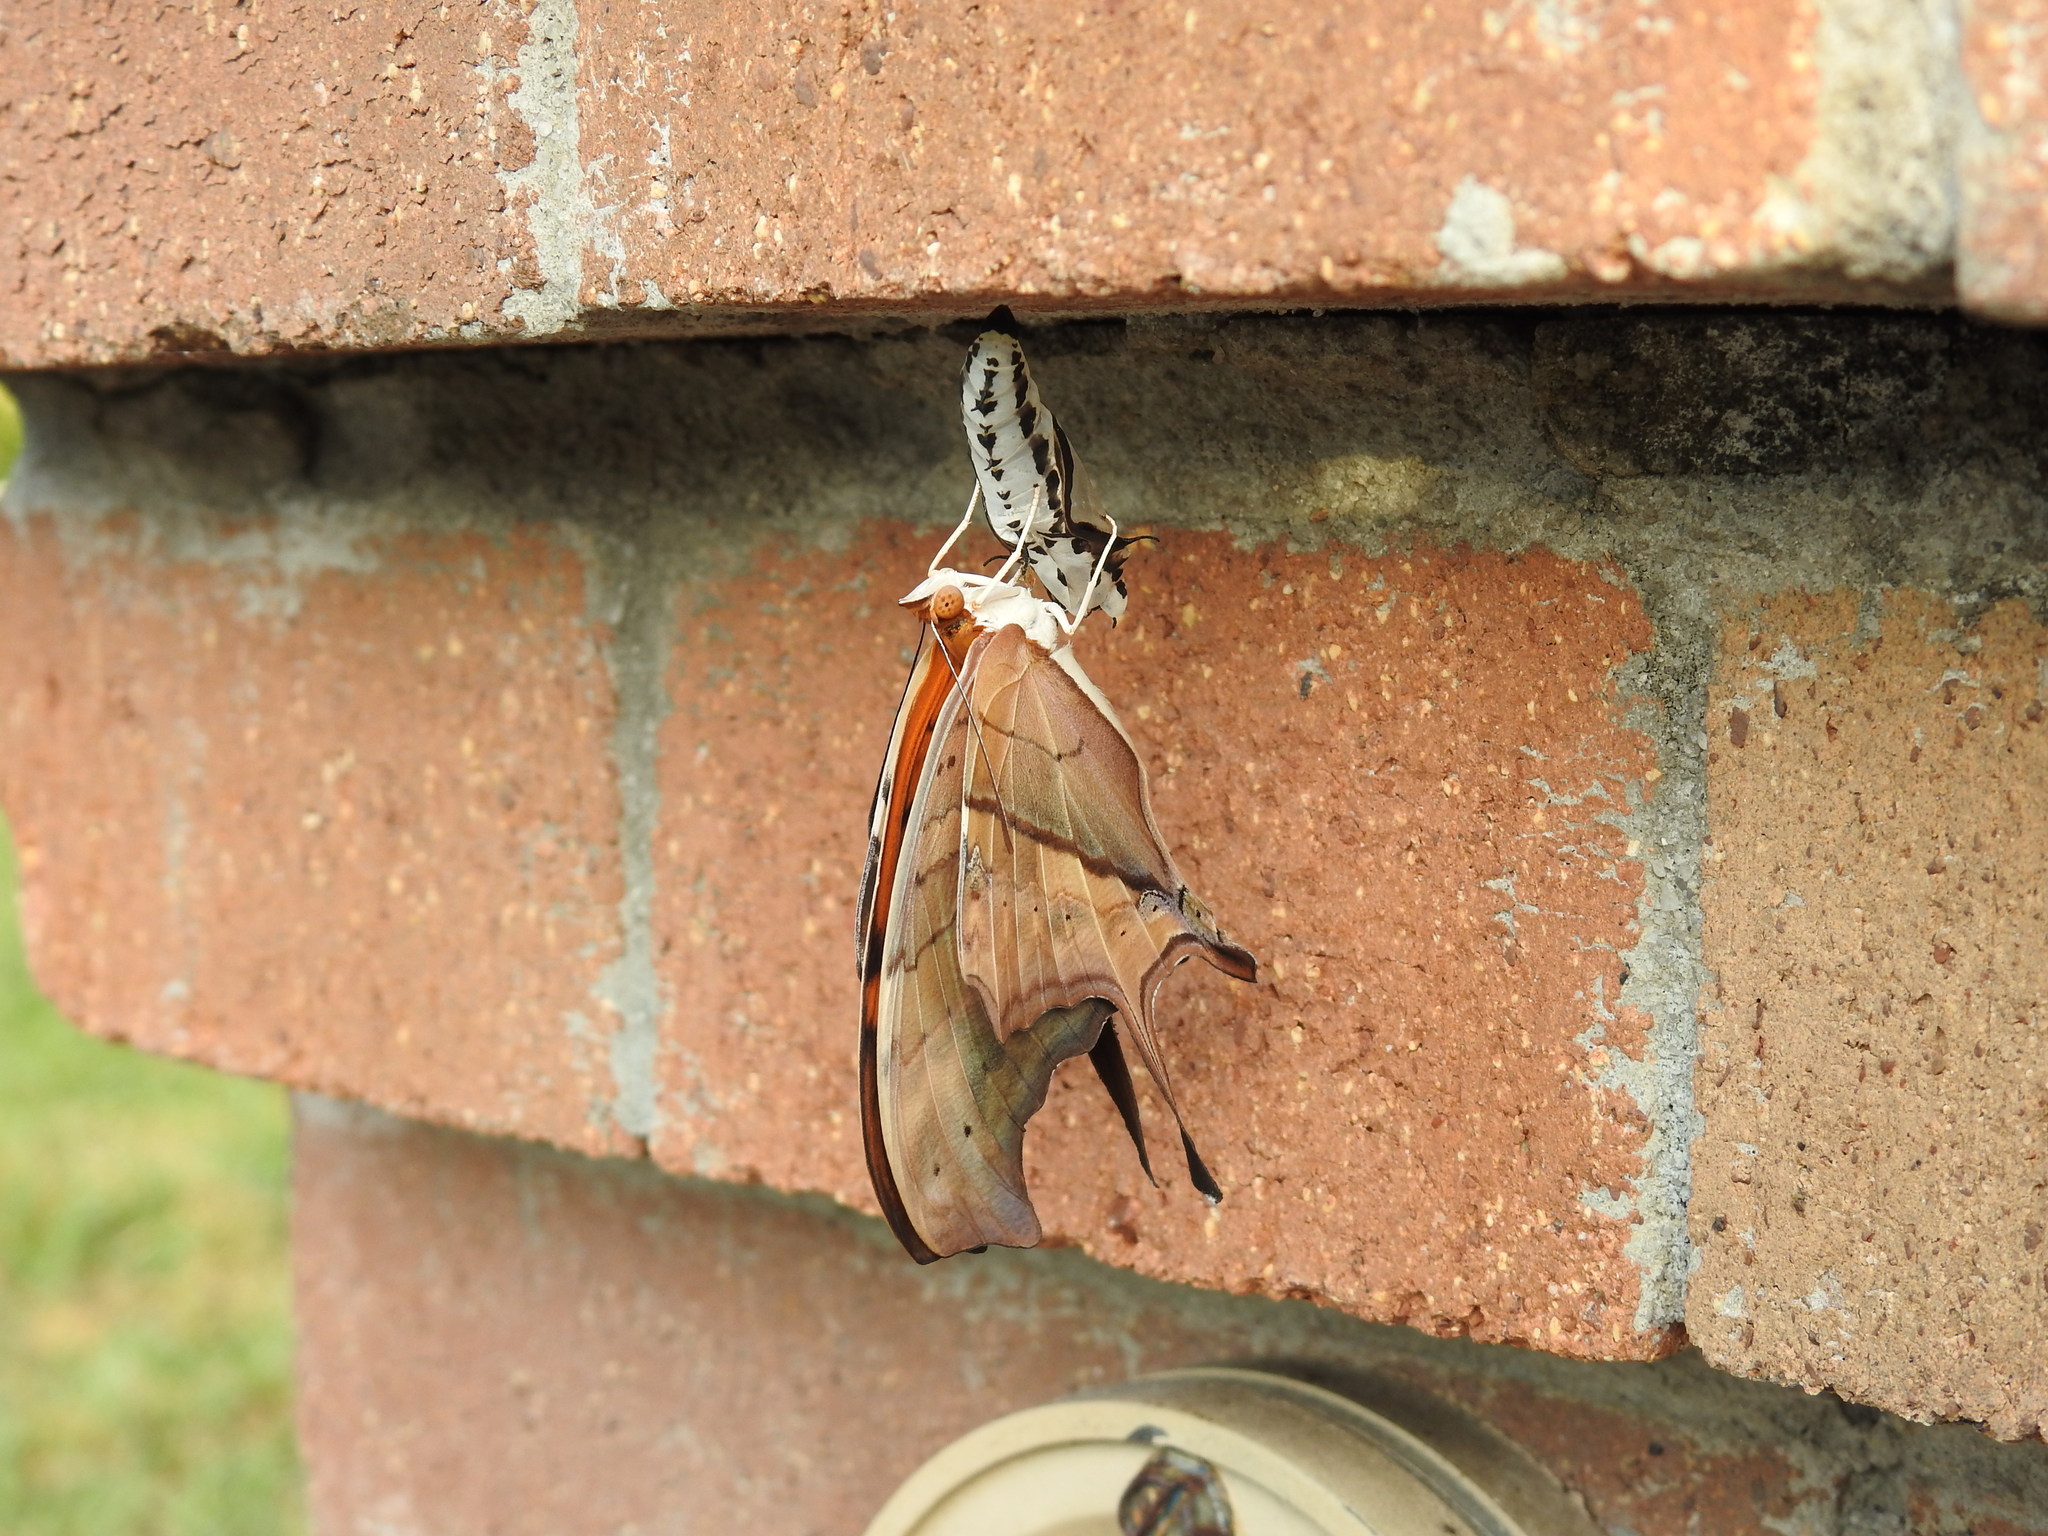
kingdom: Animalia
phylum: Arthropoda
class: Insecta
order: Lepidoptera
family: Nymphalidae
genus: Marpesia
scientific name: Marpesia petreus
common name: Red dagger wing
